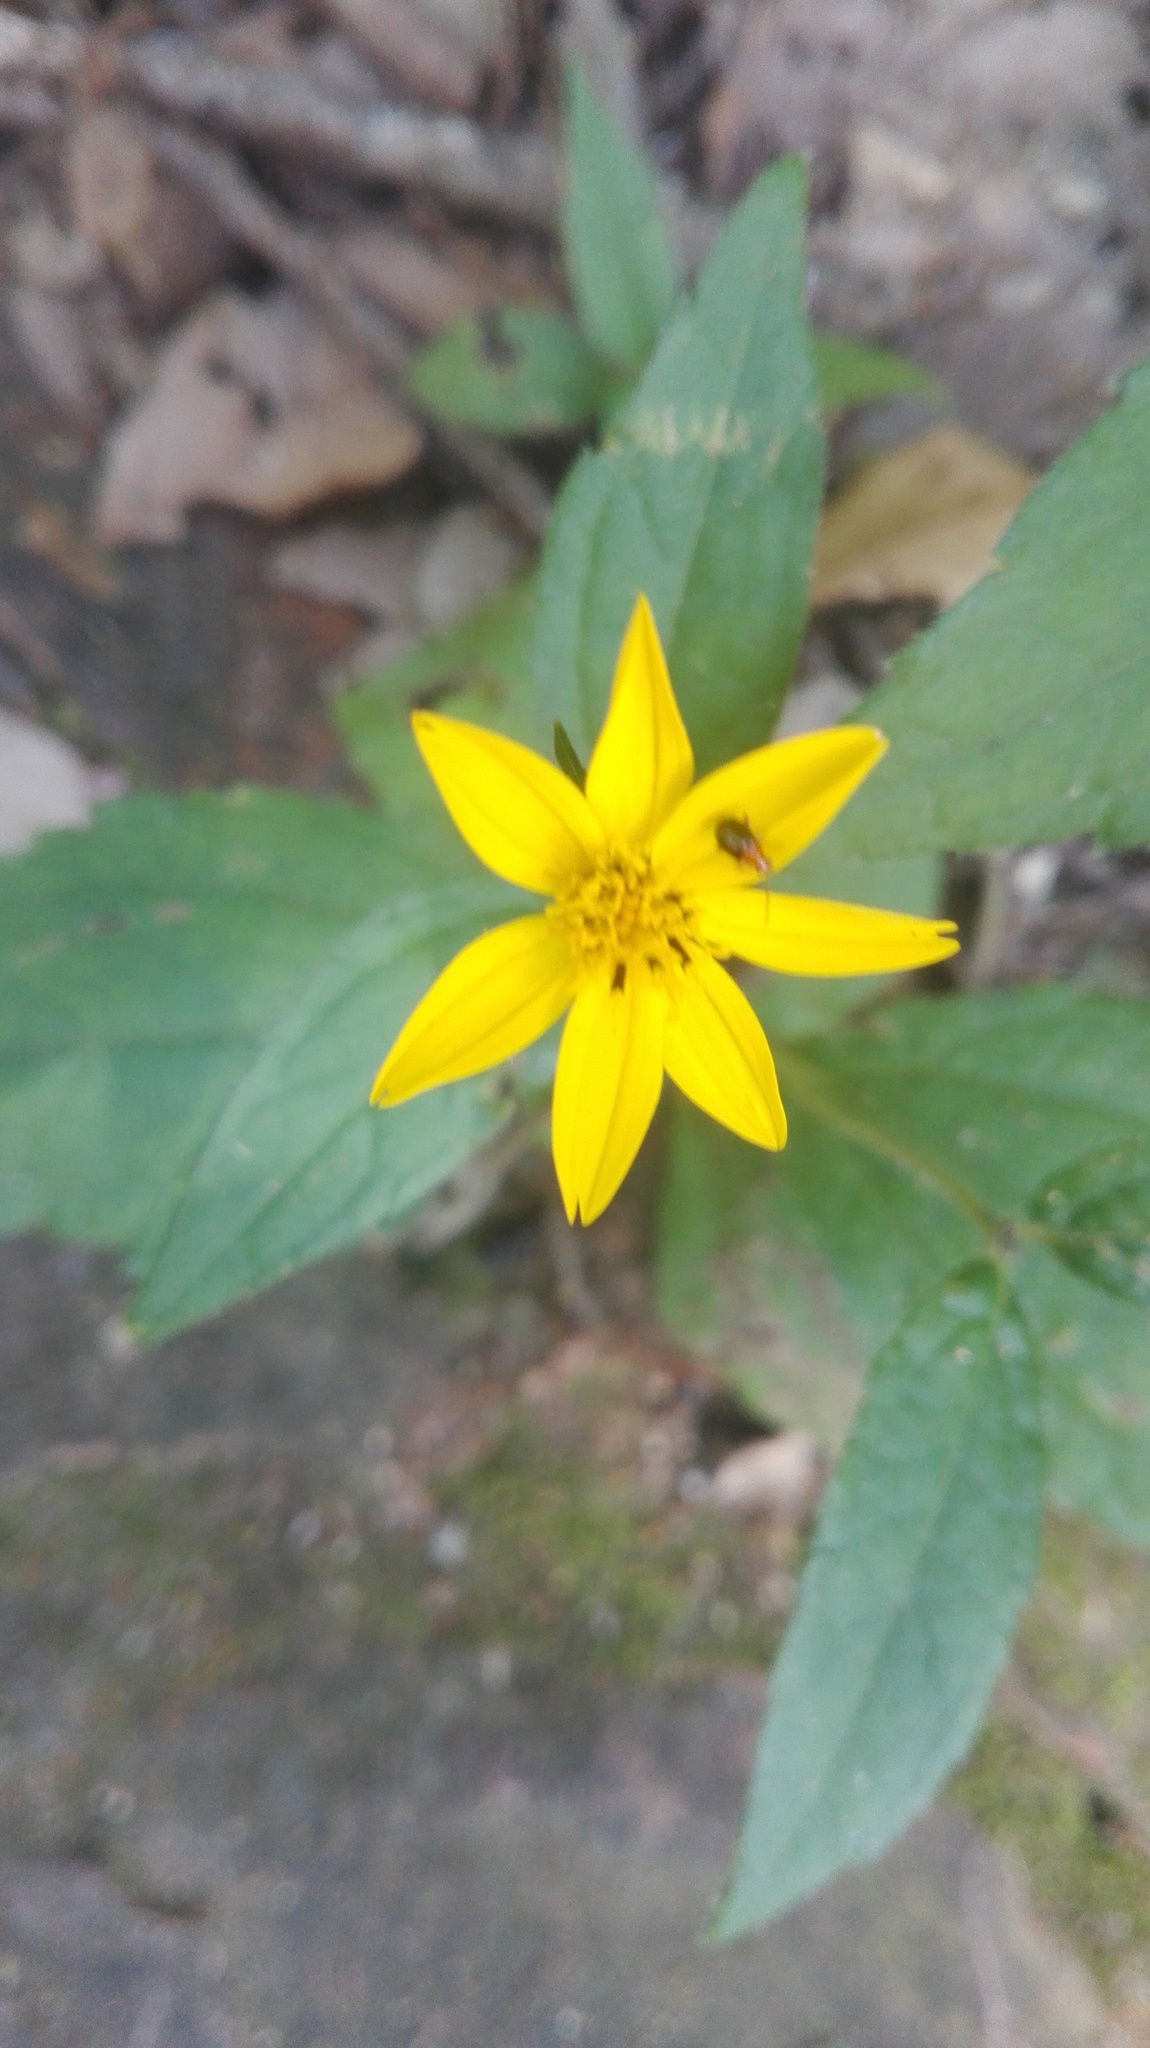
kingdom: Plantae
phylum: Tracheophyta
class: Magnoliopsida
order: Asterales
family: Asteraceae
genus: Wedelia
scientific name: Wedelia acapulcensis
